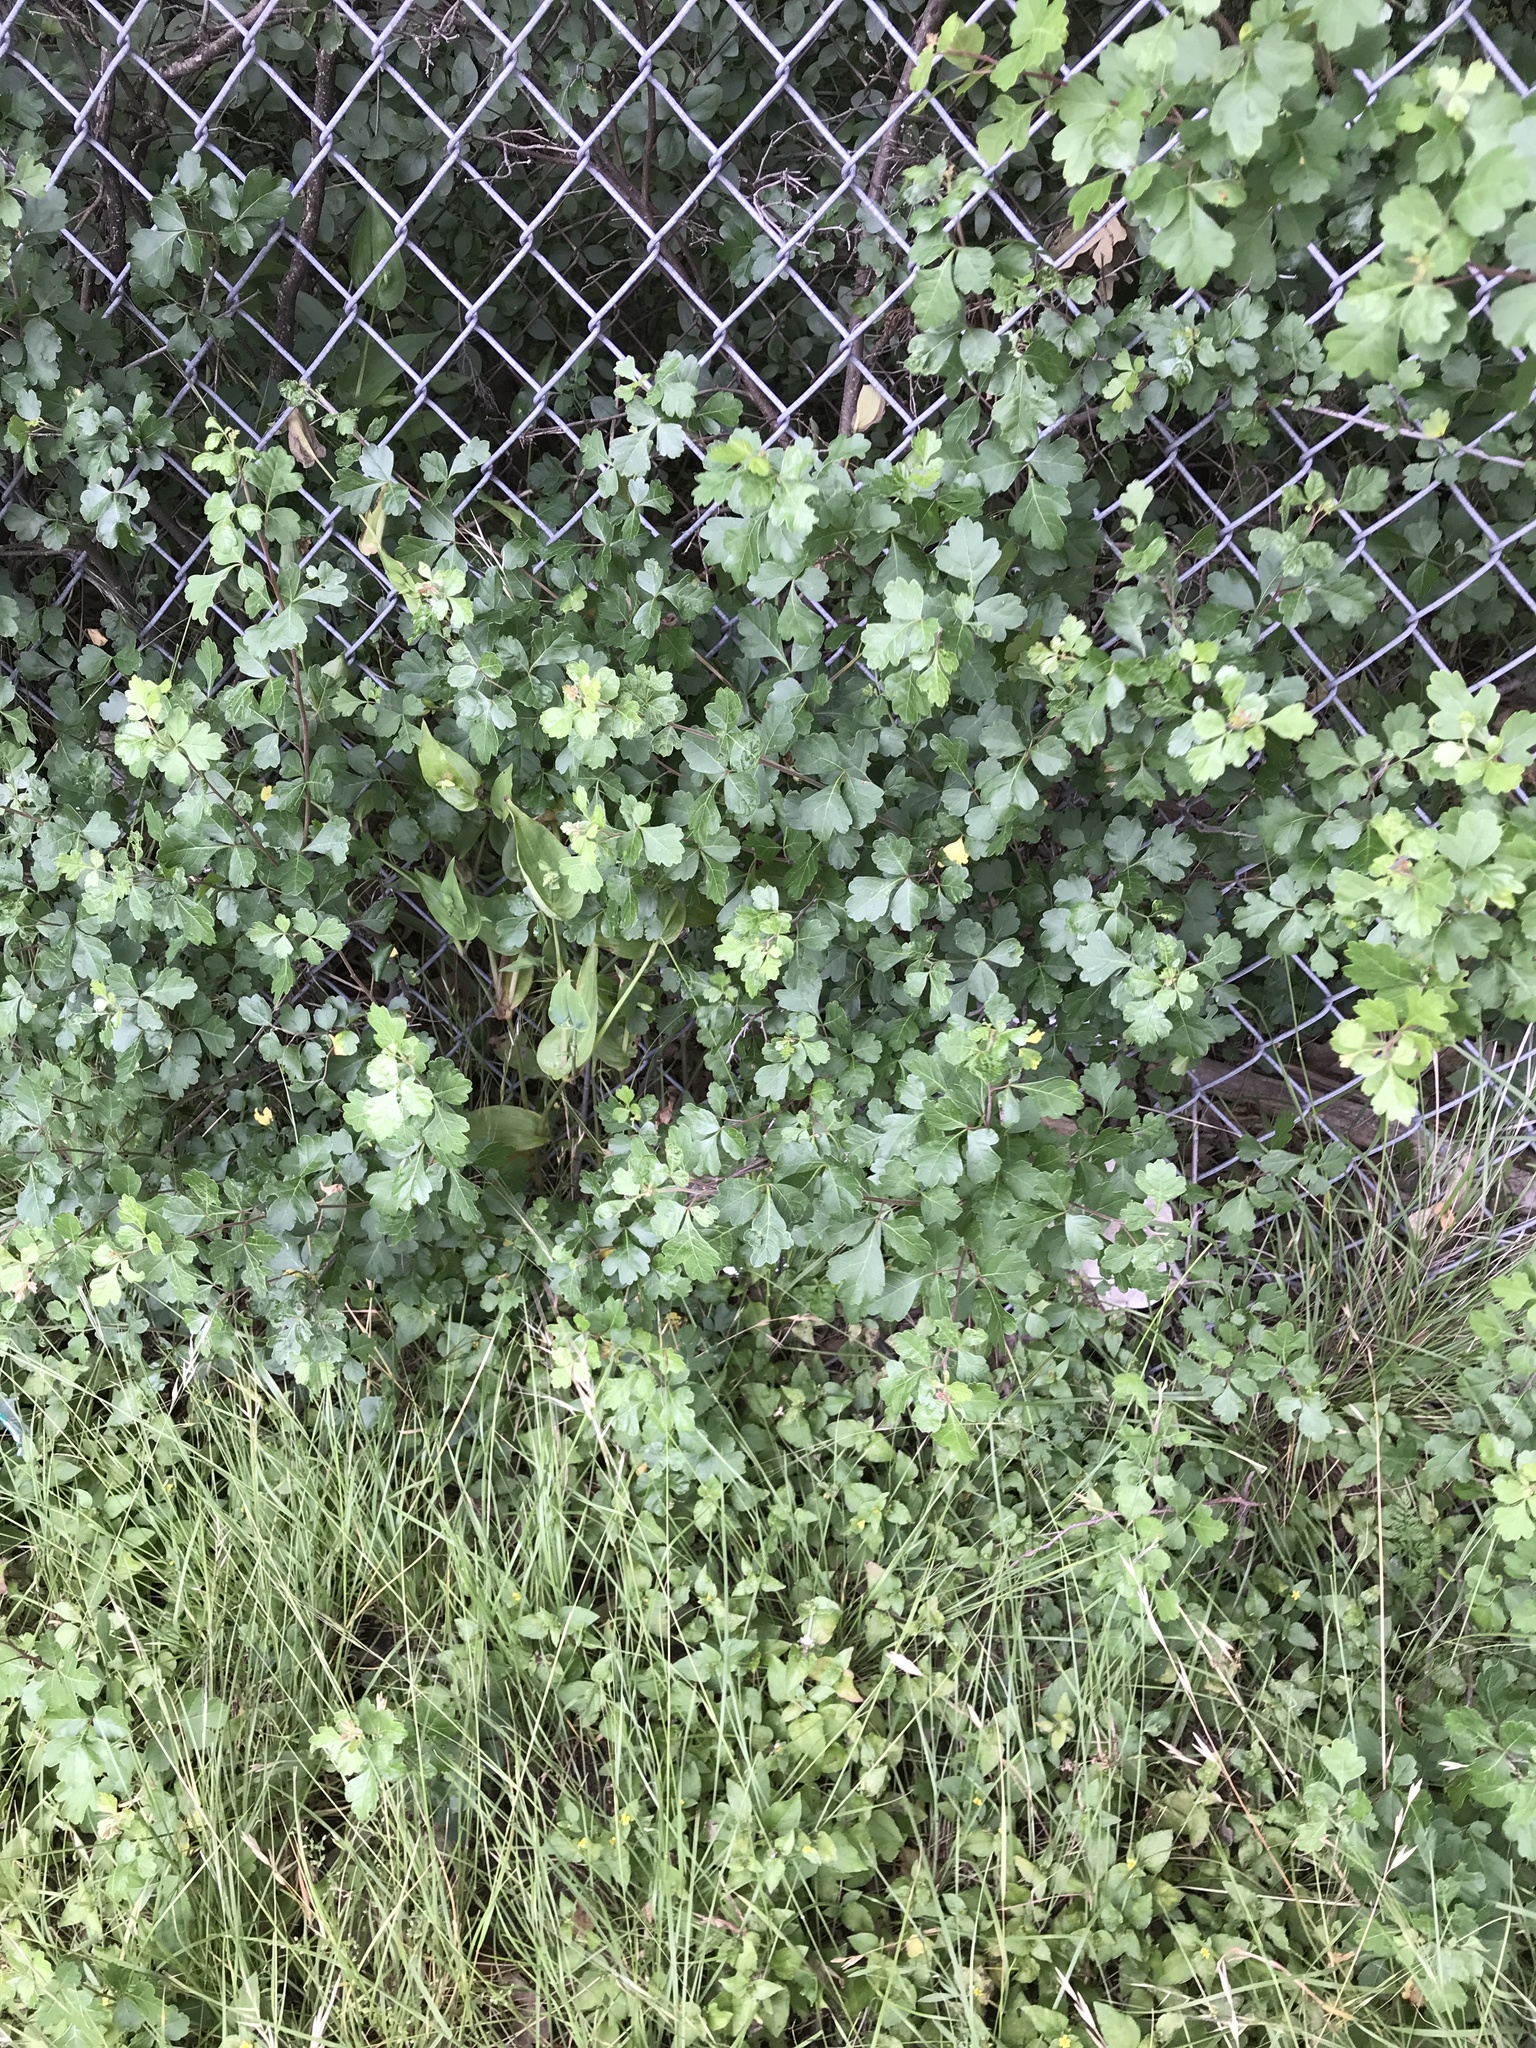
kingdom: Plantae
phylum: Tracheophyta
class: Magnoliopsida
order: Sapindales
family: Anacardiaceae
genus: Rhus
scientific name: Rhus aromatica
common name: Aromatic sumac
